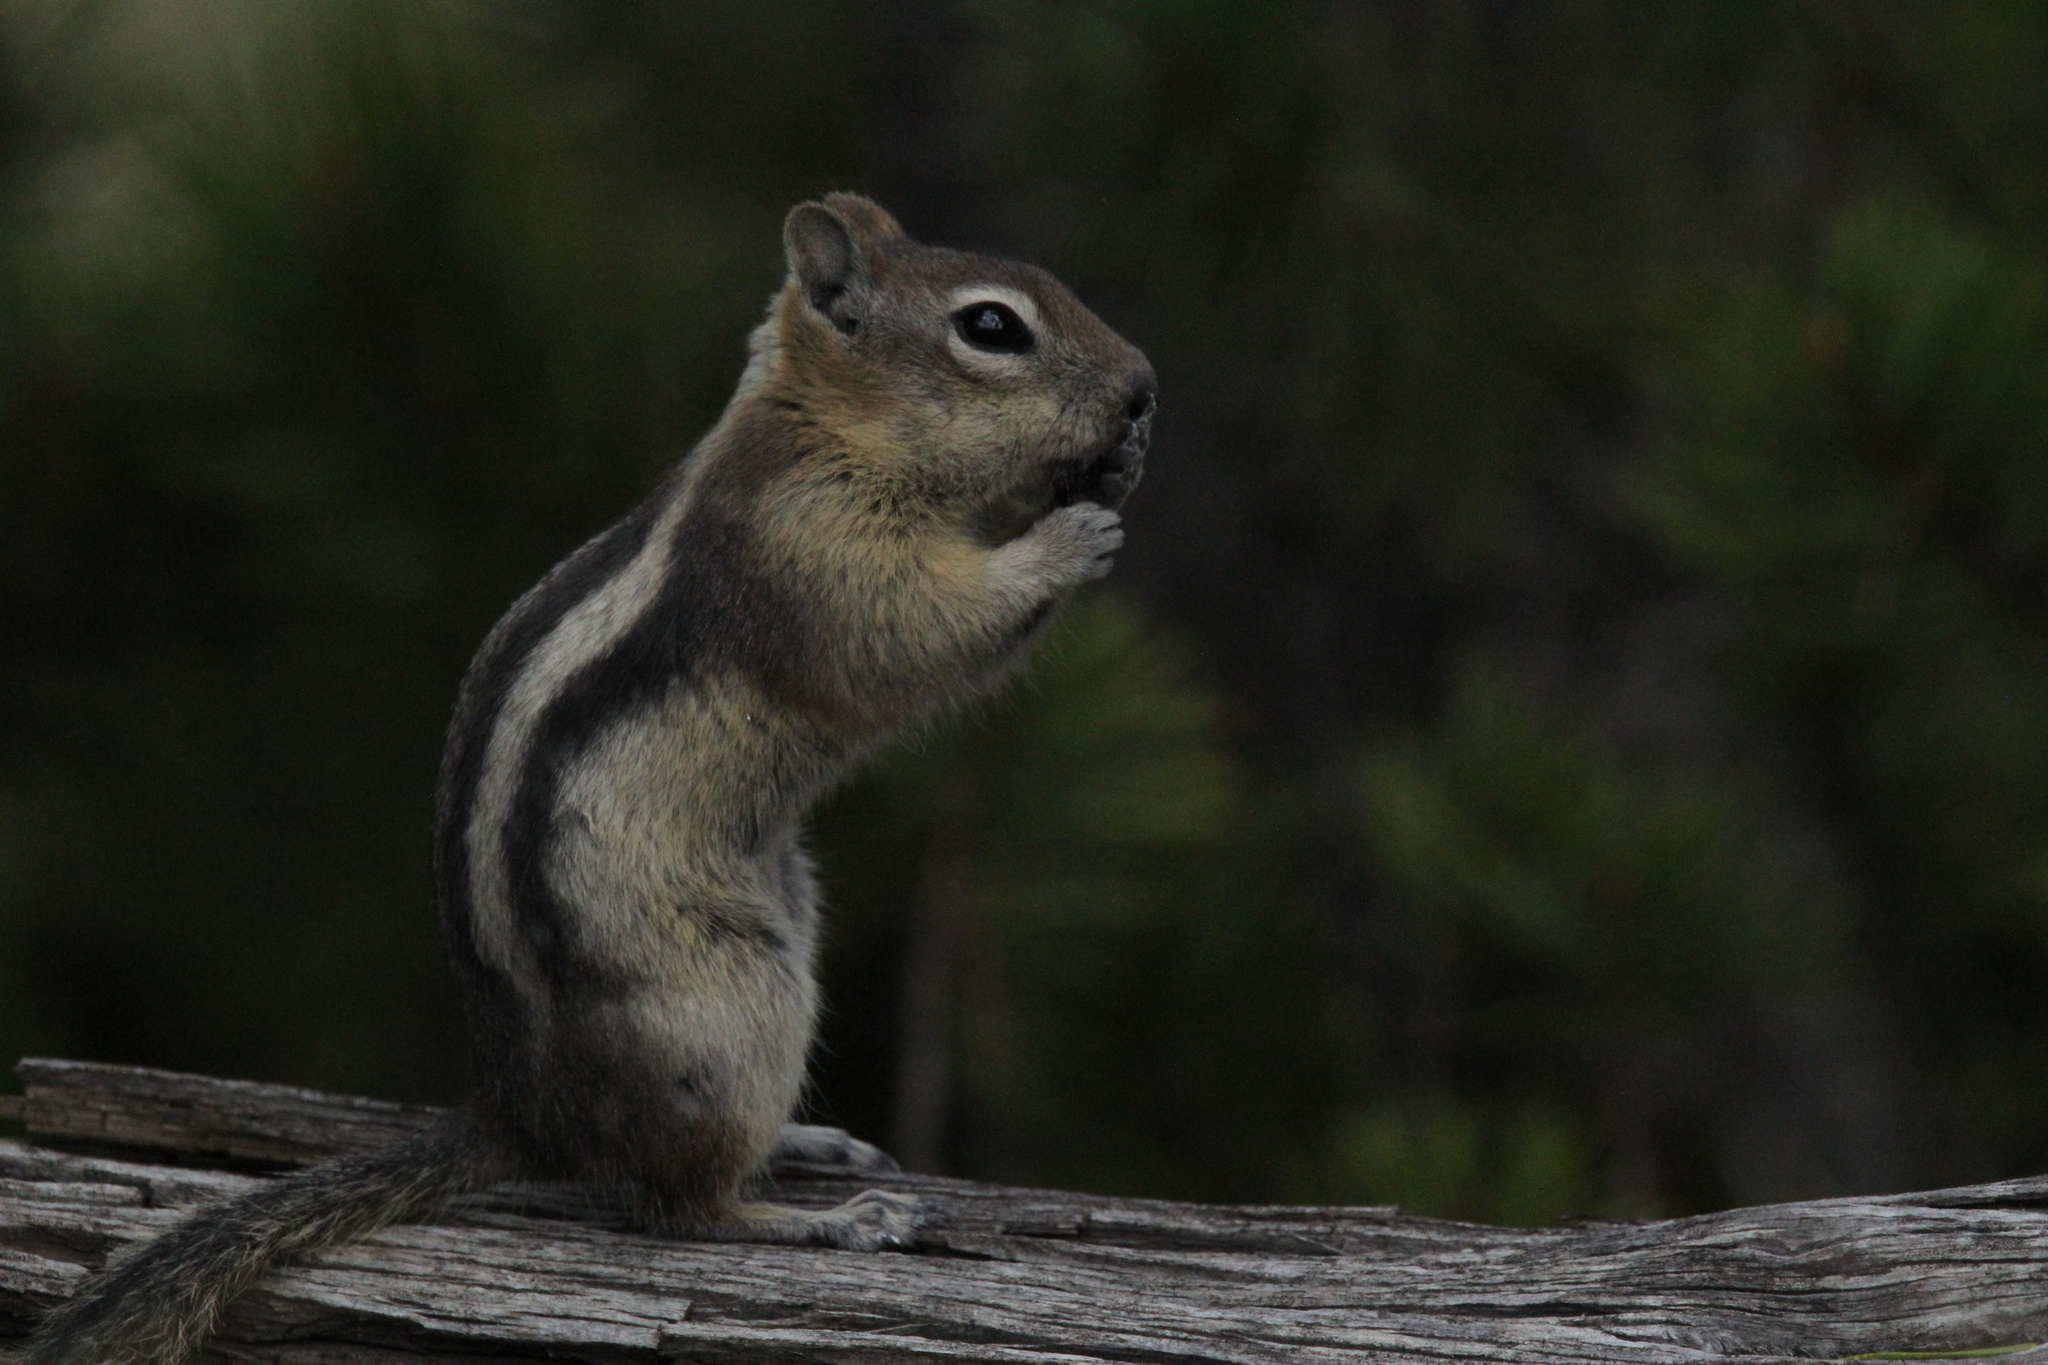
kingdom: Animalia
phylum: Chordata
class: Mammalia
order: Rodentia
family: Sciuridae
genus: Callospermophilus
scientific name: Callospermophilus lateralis
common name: Golden-mantled ground squirrel
